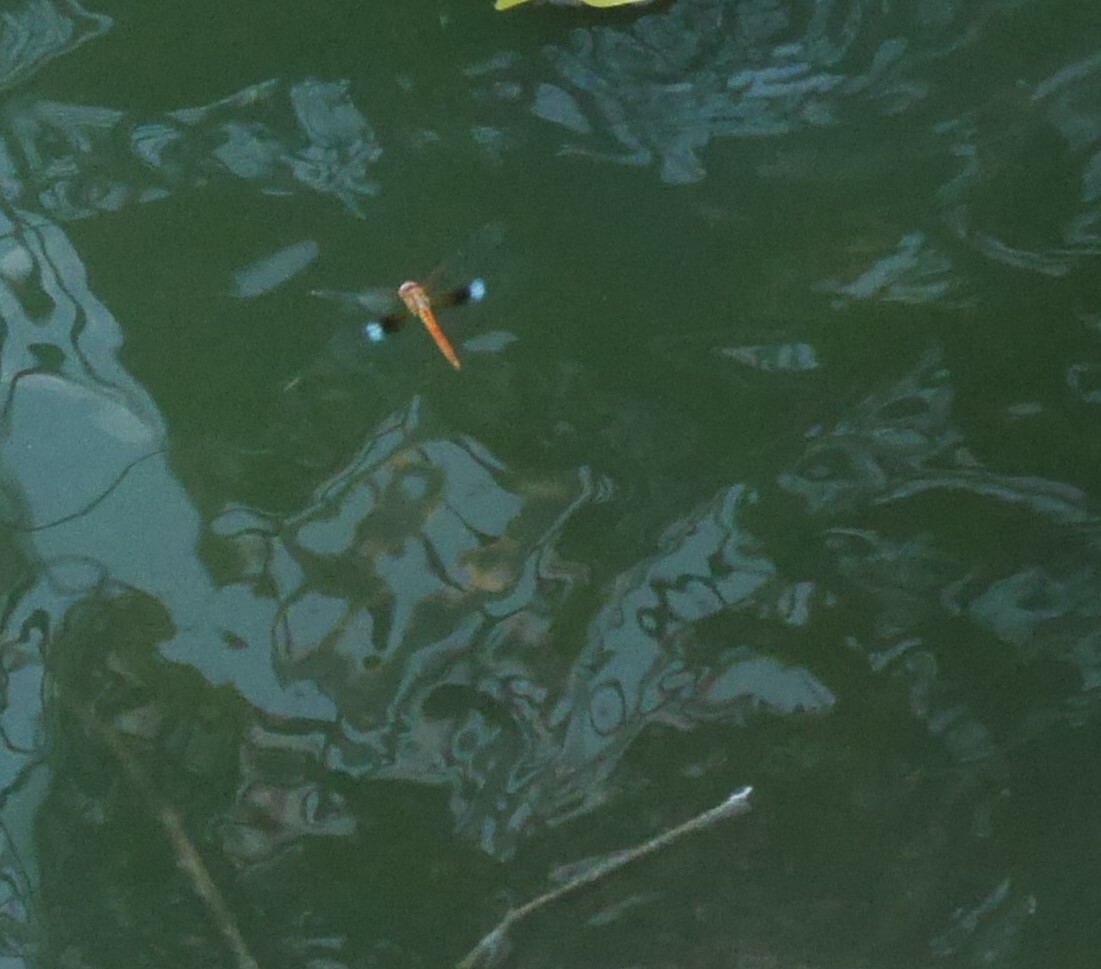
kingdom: Animalia
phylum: Arthropoda
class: Insecta
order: Odonata
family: Libellulidae
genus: Tholymis
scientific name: Tholymis tillarga
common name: Coral-tailed cloud wing
